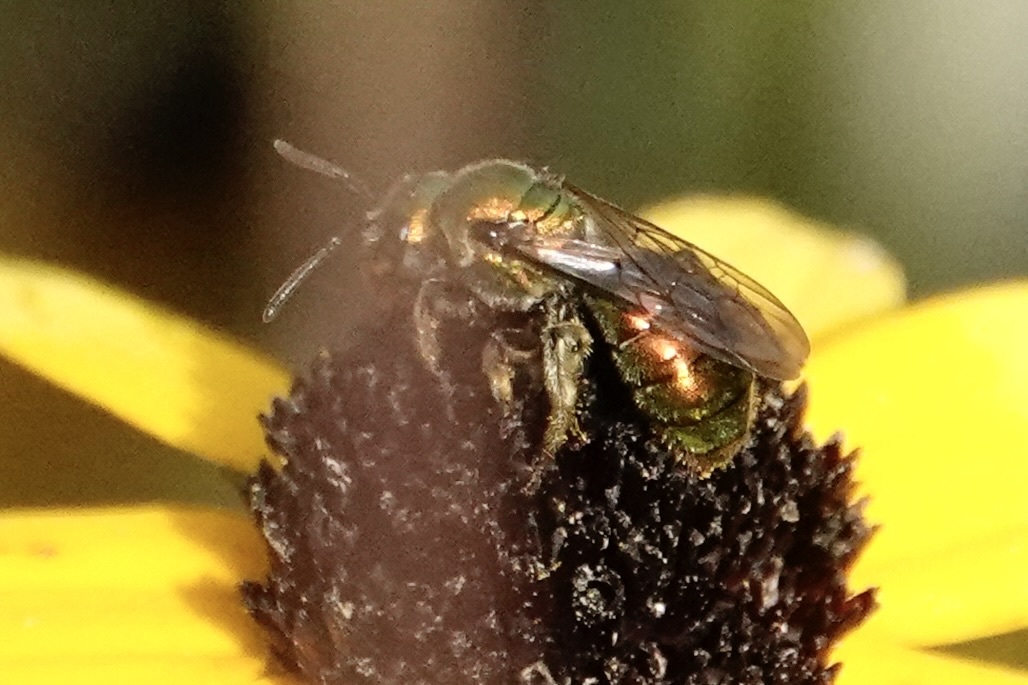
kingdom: Animalia
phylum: Arthropoda
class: Insecta
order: Hymenoptera
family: Halictidae
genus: Augochlora
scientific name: Augochlora pura
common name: Pure green sweat bee
